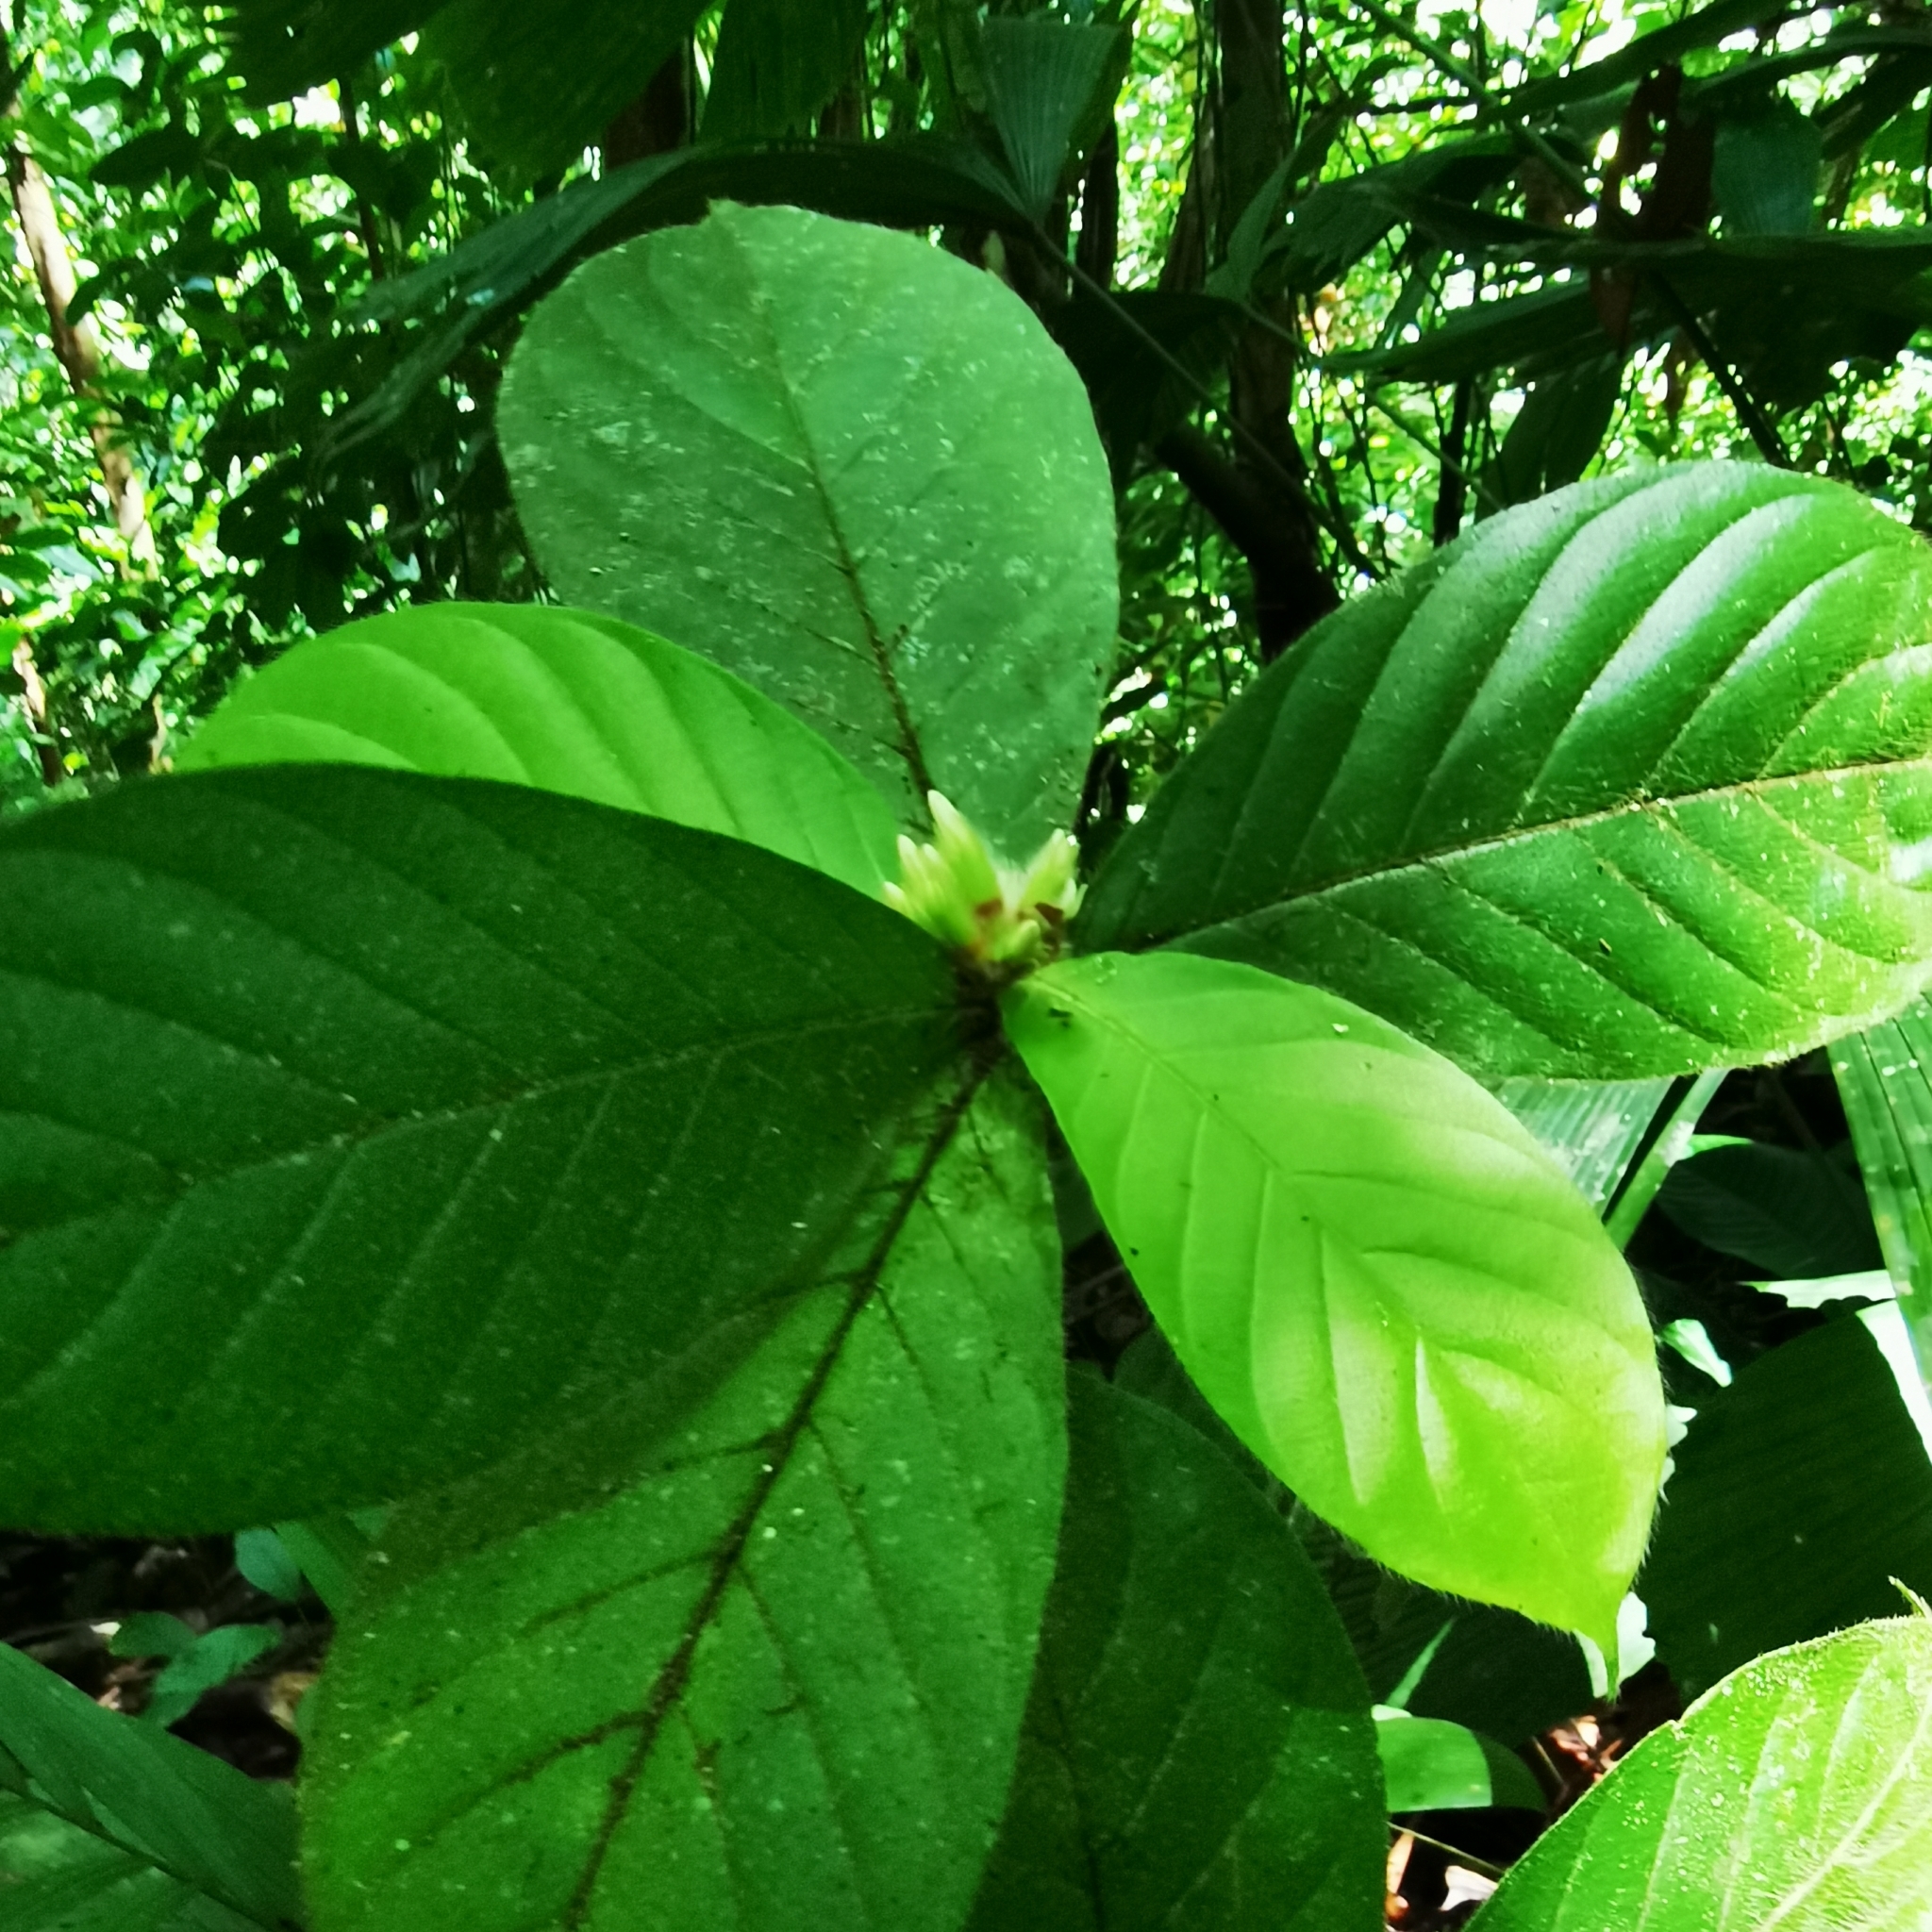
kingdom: Plantae
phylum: Tracheophyta
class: Magnoliopsida
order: Gentianales
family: Rubiaceae
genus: Duroia
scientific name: Duroia costaricensis
